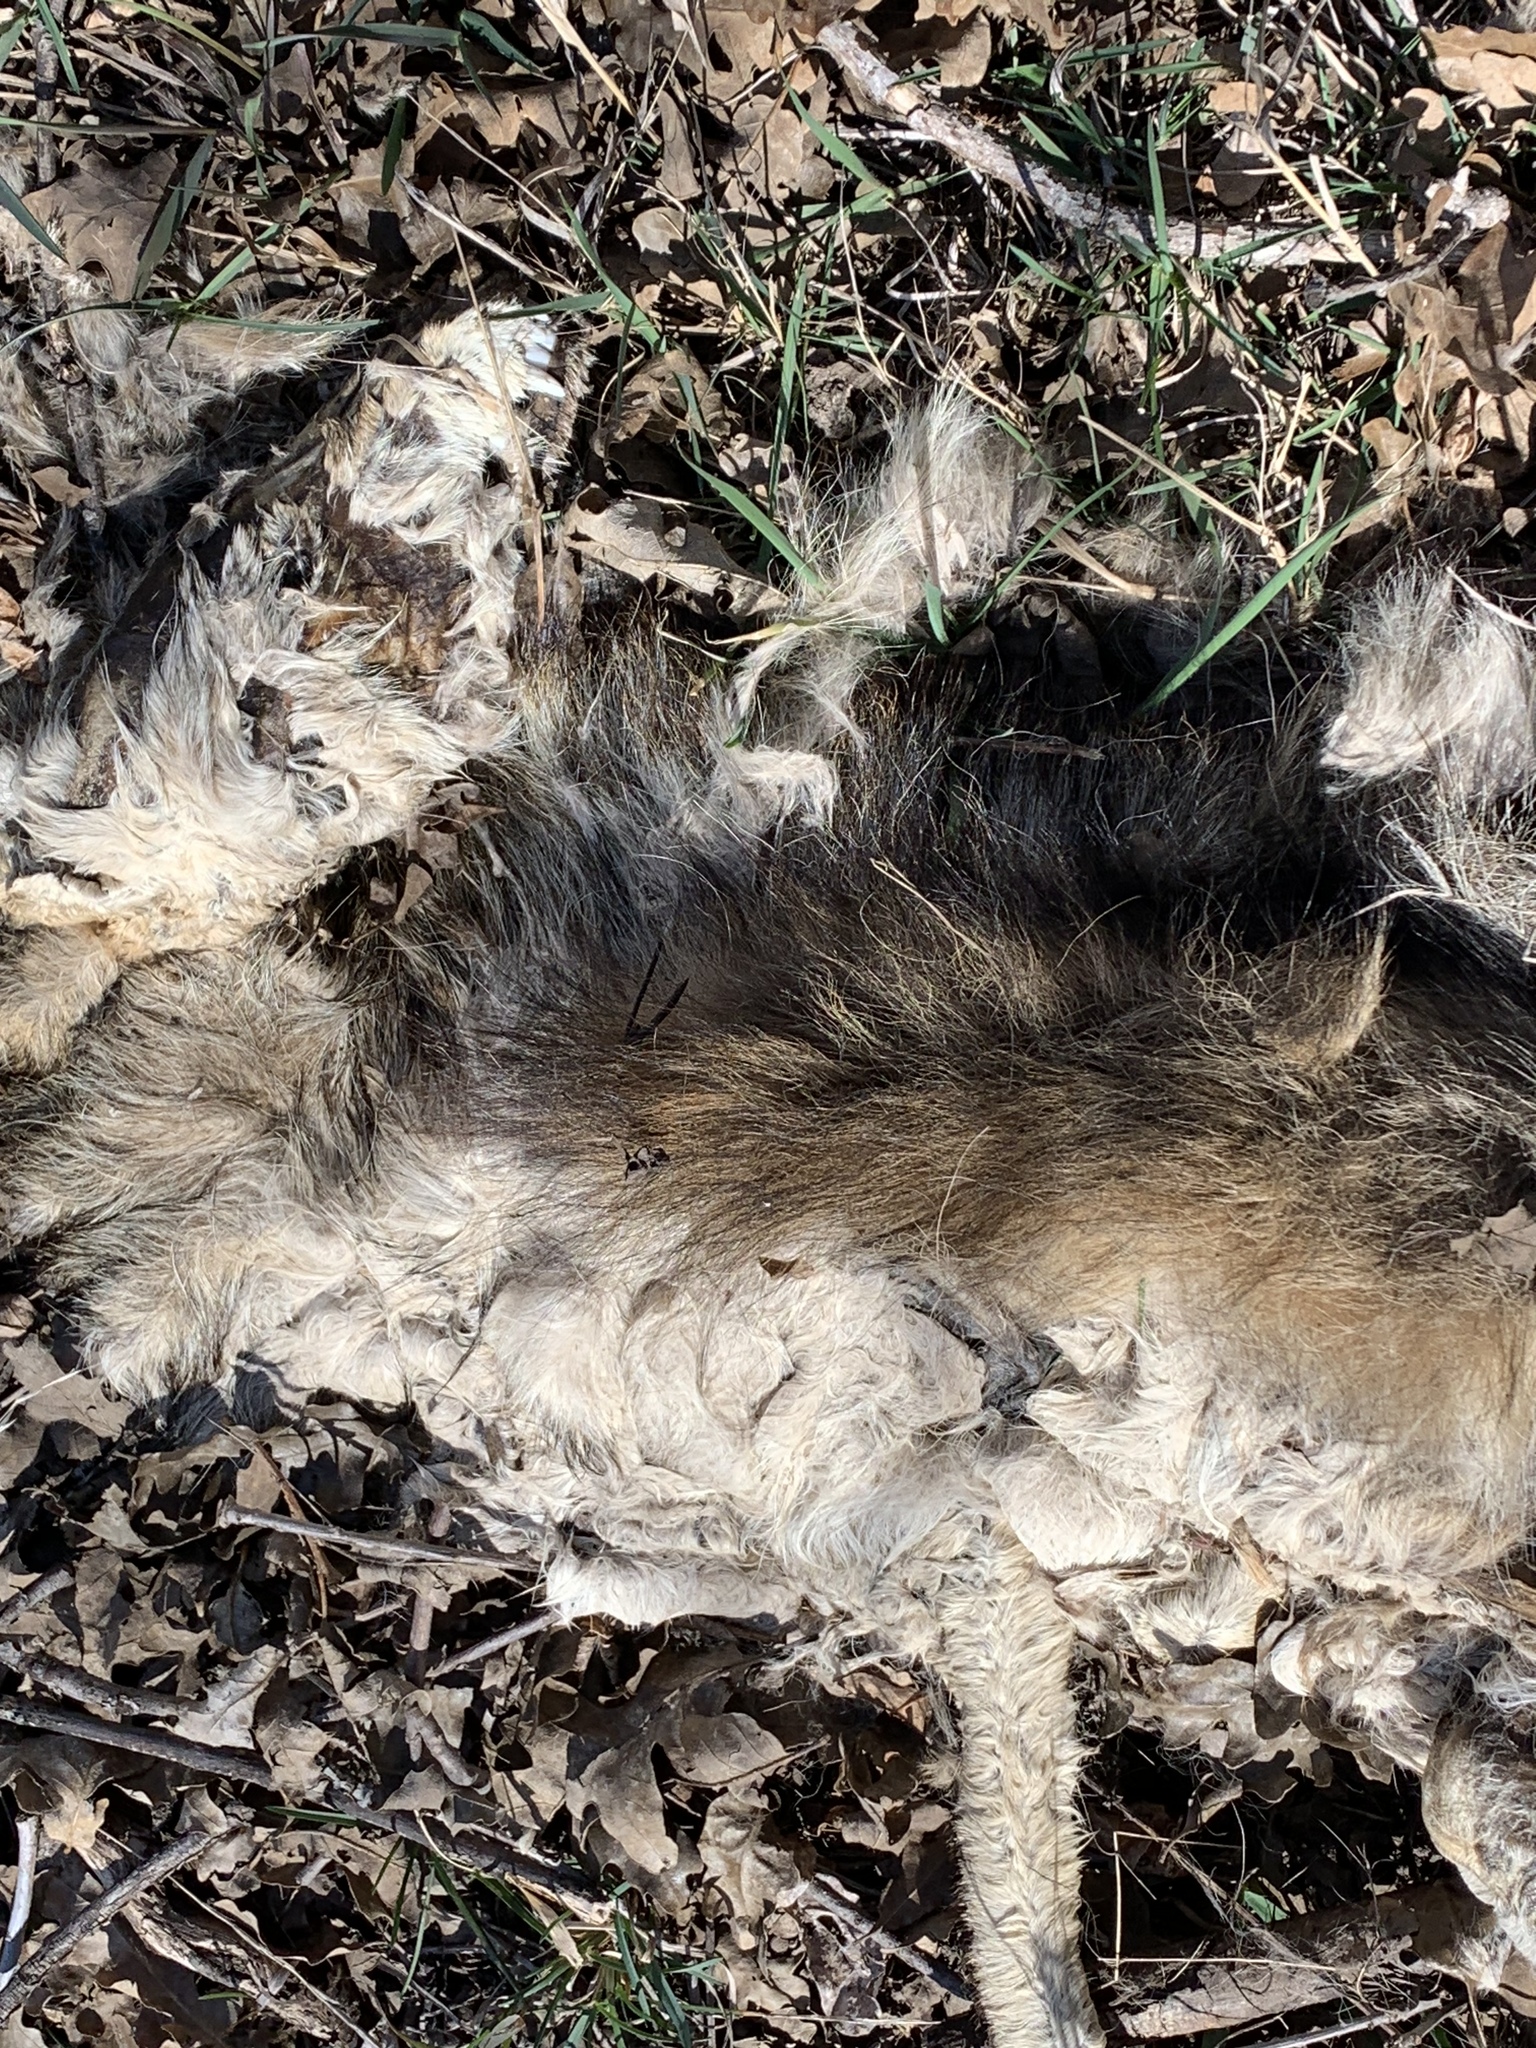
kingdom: Animalia
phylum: Chordata
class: Mammalia
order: Carnivora
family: Canidae
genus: Canis
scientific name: Canis latrans
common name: Coyote
